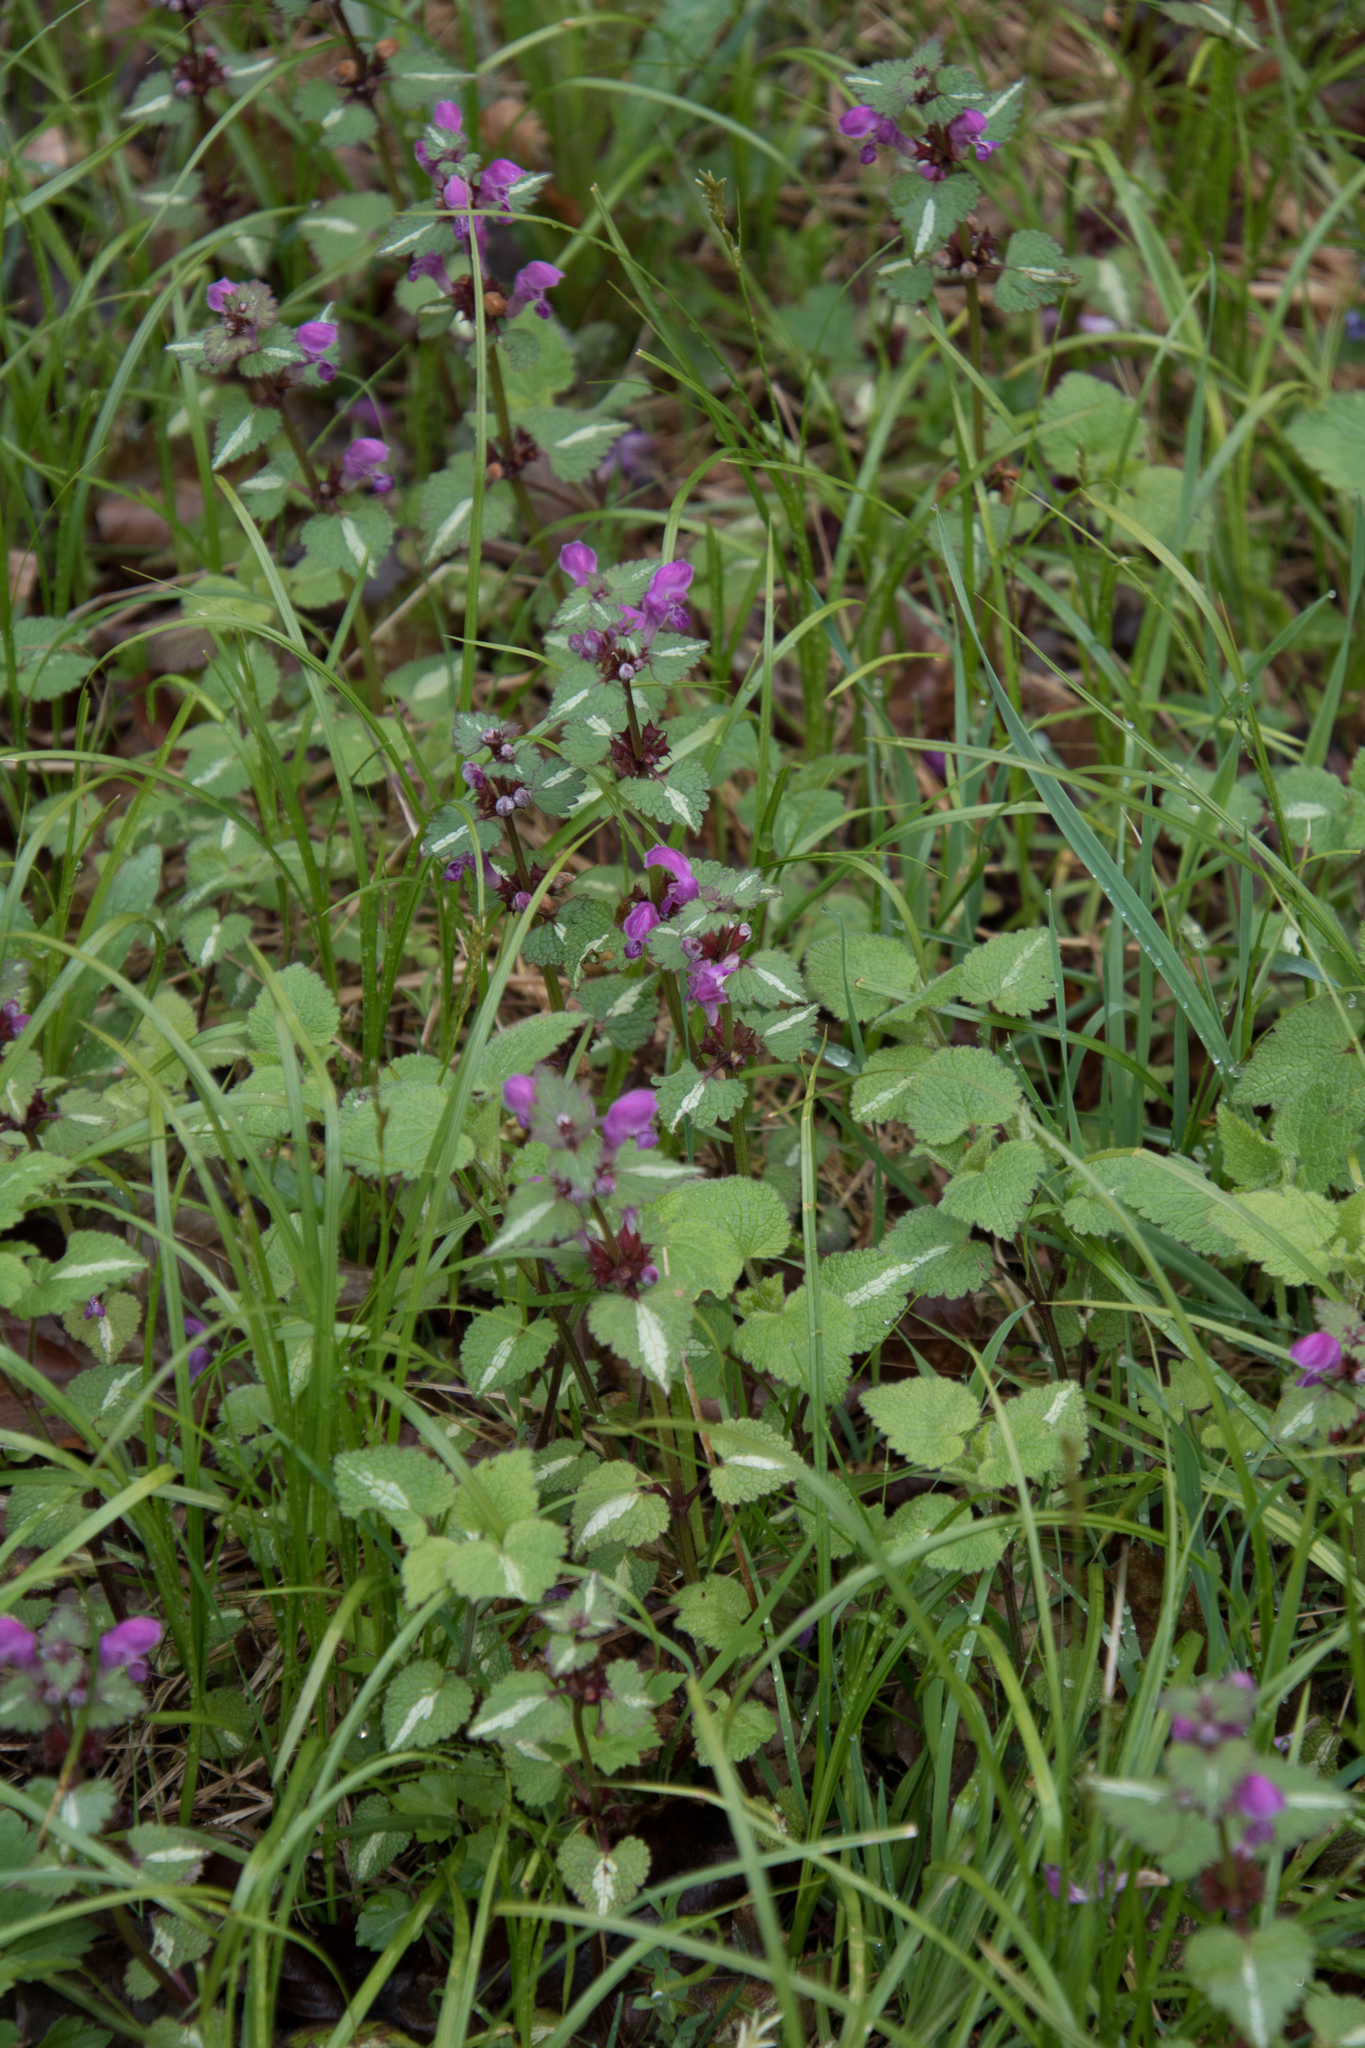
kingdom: Plantae
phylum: Tracheophyta
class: Magnoliopsida
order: Lamiales
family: Lamiaceae
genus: Lamium
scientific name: Lamium maculatum
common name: Spotted dead-nettle
